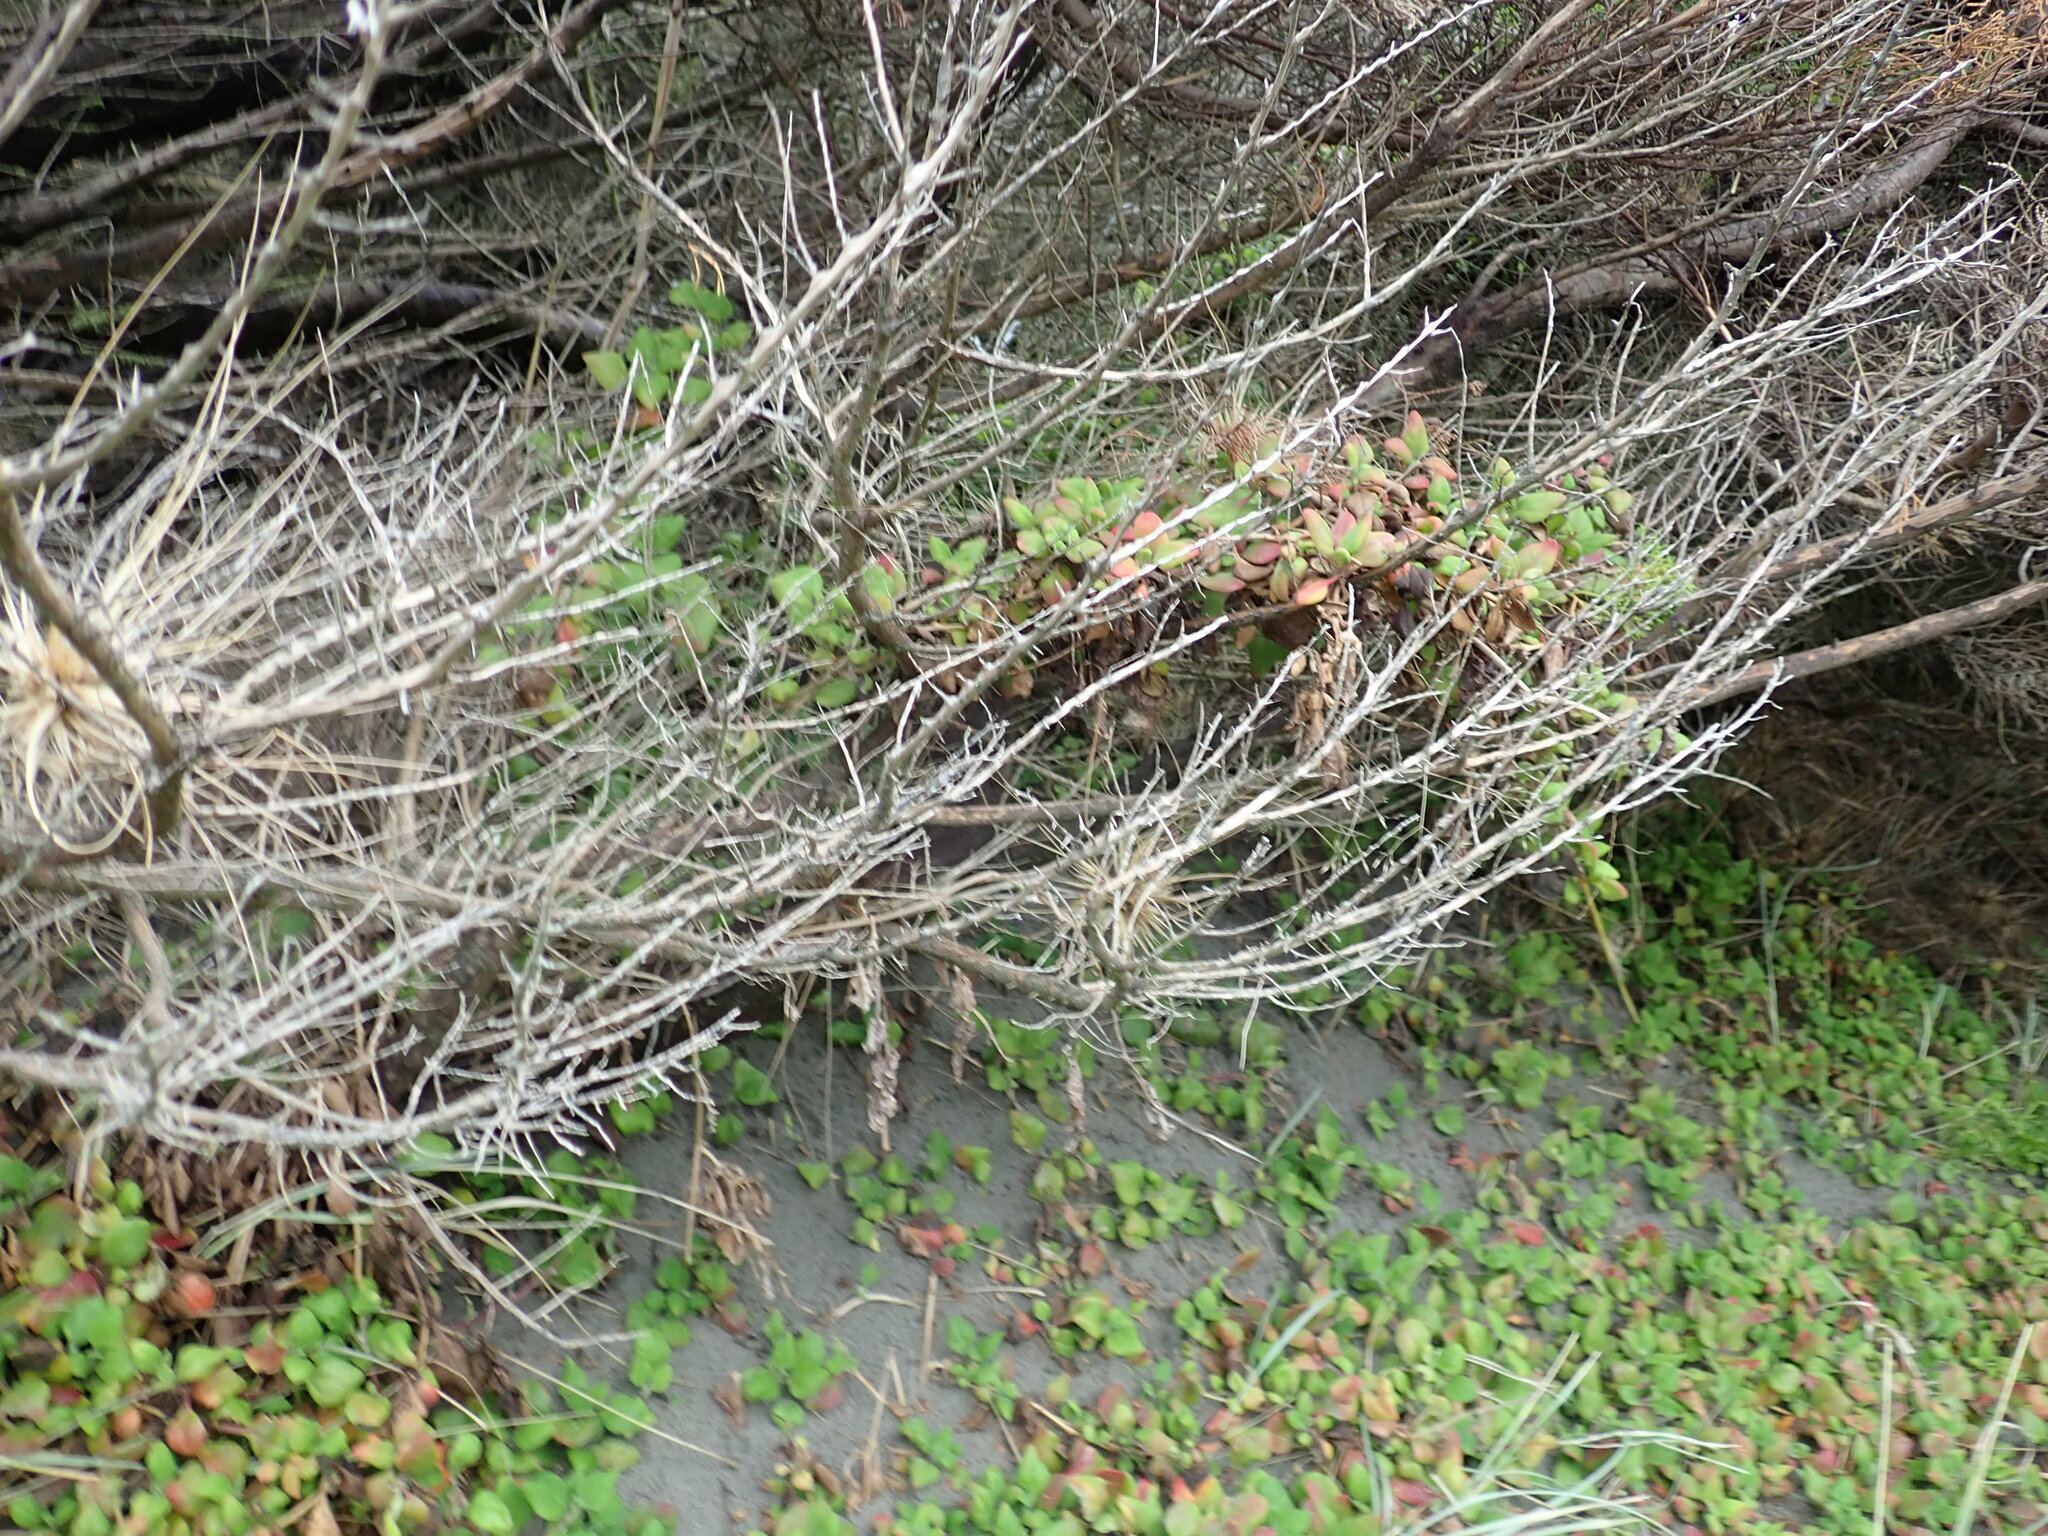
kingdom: Plantae
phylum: Tracheophyta
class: Magnoliopsida
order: Caryophyllales
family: Aizoaceae
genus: Tetragonia
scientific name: Tetragonia implexicoma
